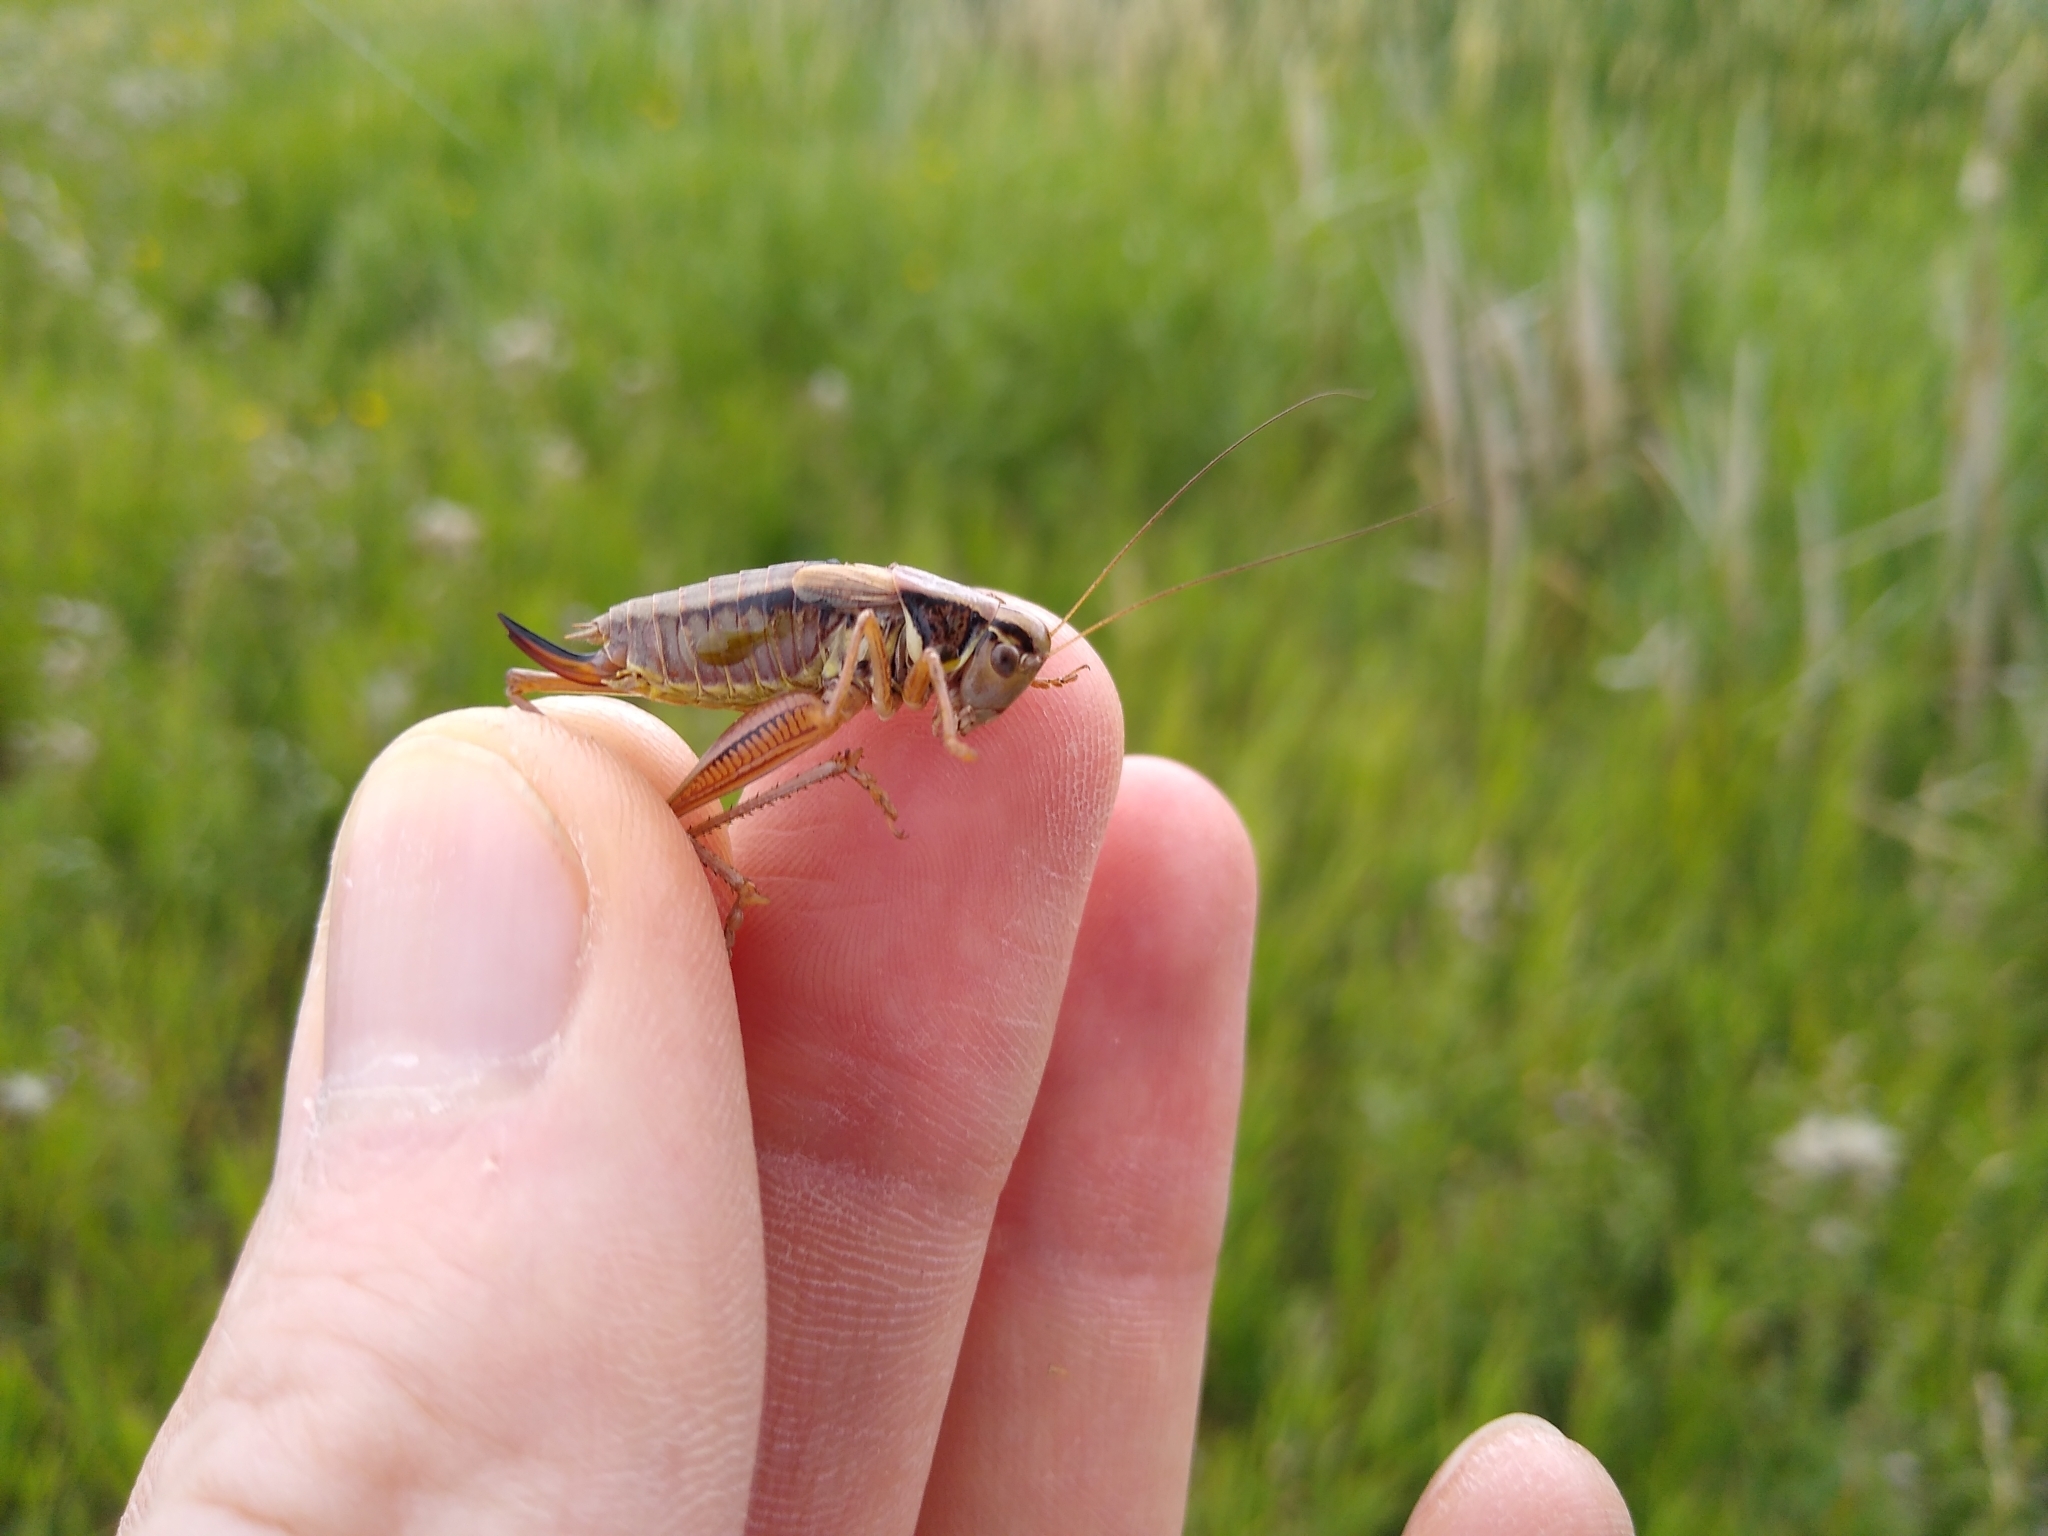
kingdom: Animalia
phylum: Arthropoda
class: Insecta
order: Orthoptera
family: Tettigoniidae
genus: Roeseliana
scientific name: Roeseliana roeselii
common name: Roesel's bush cricket
